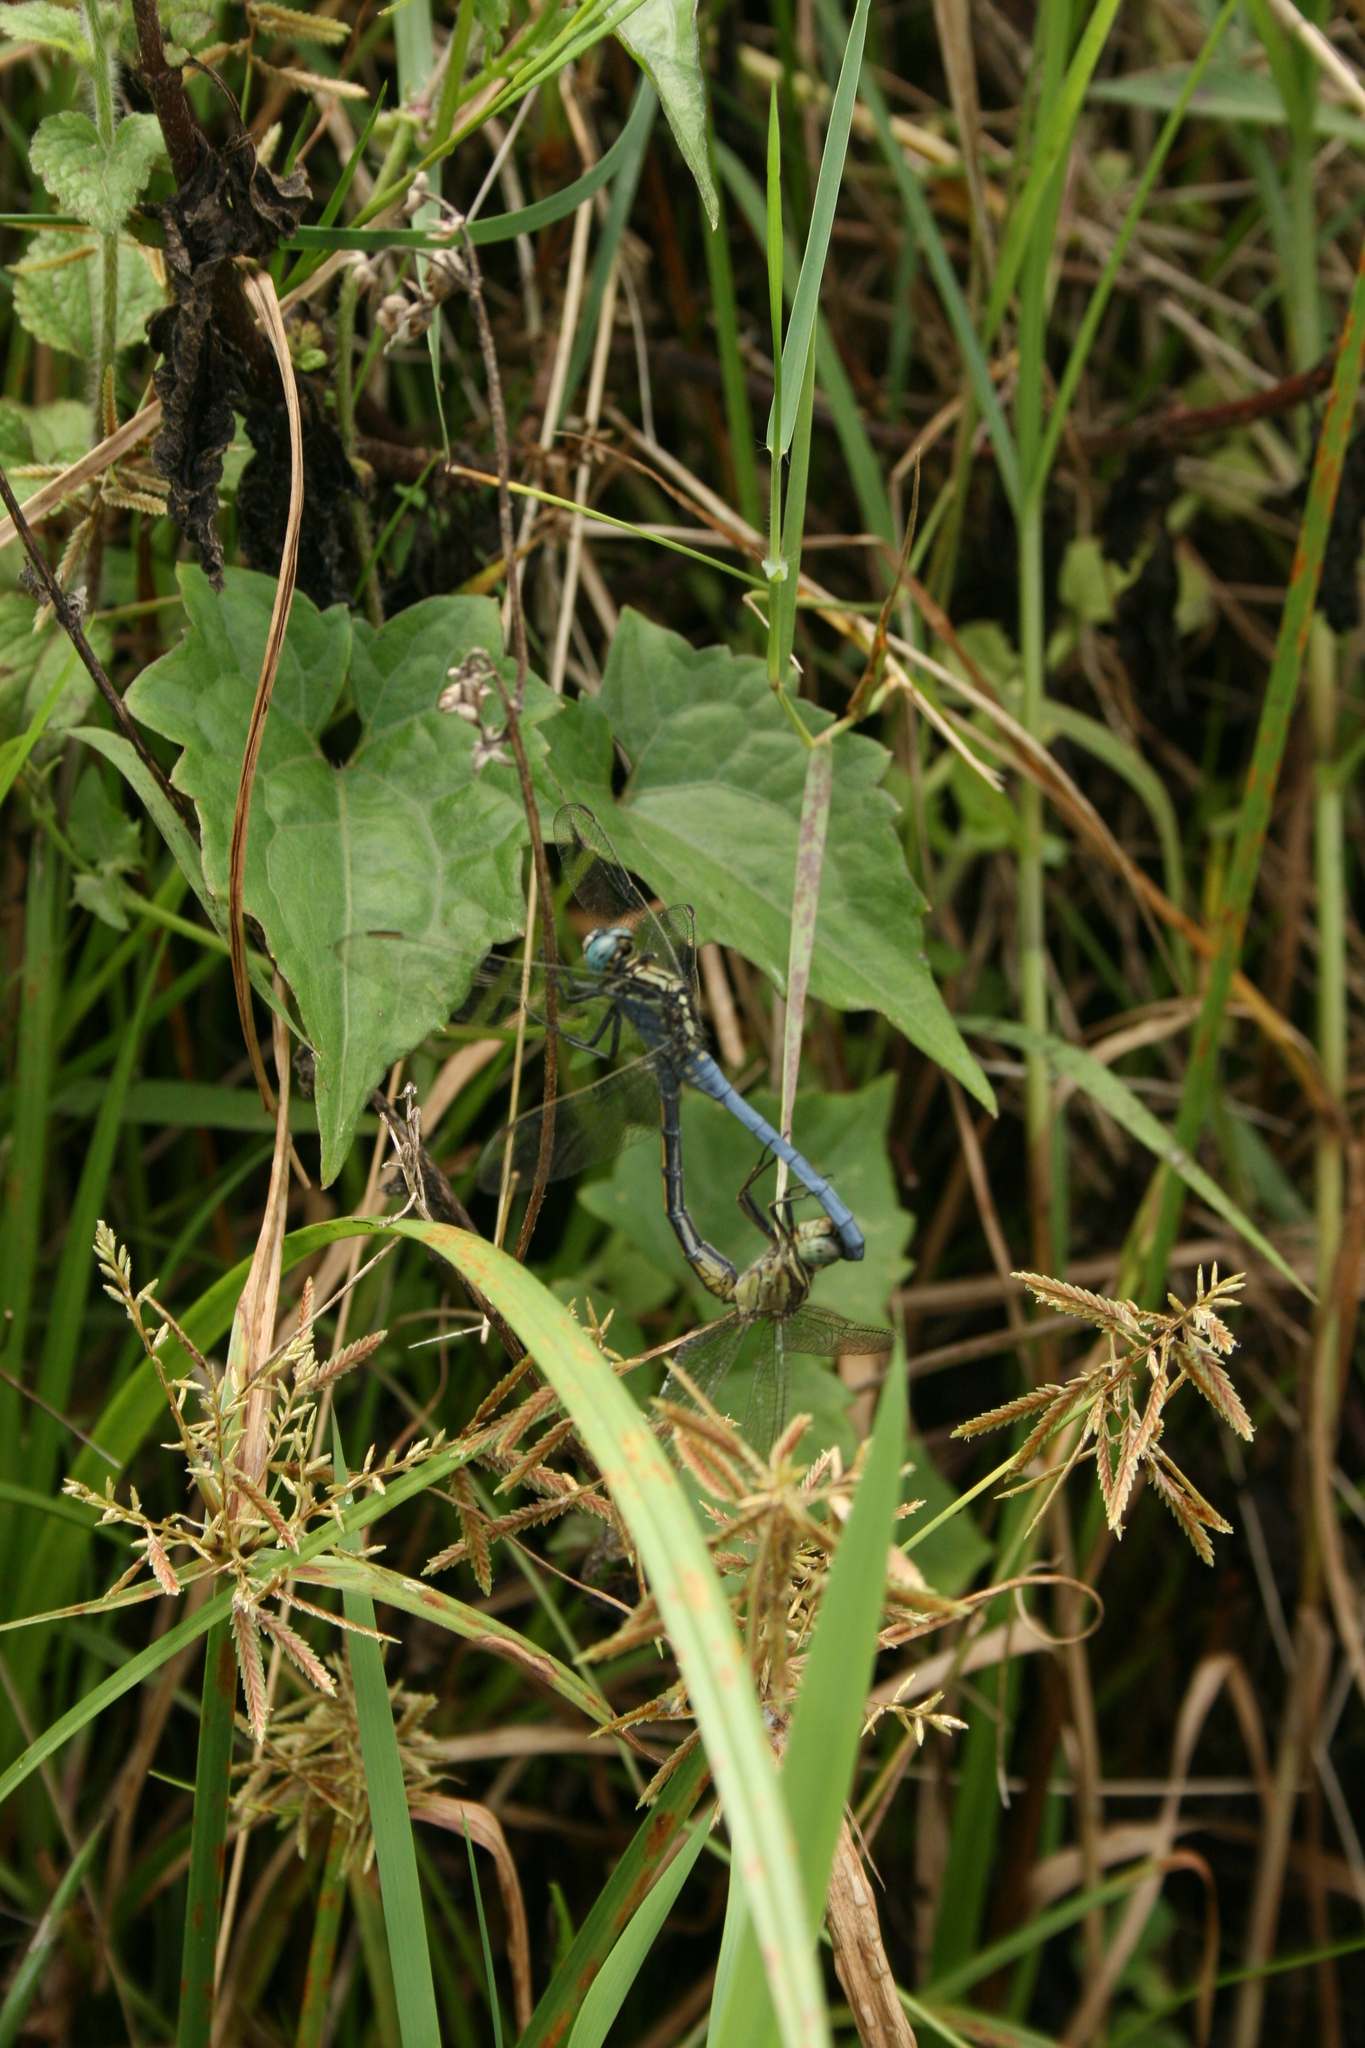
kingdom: Animalia
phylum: Arthropoda
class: Insecta
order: Odonata
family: Libellulidae
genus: Orthetrum
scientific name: Orthetrum luzonicum
